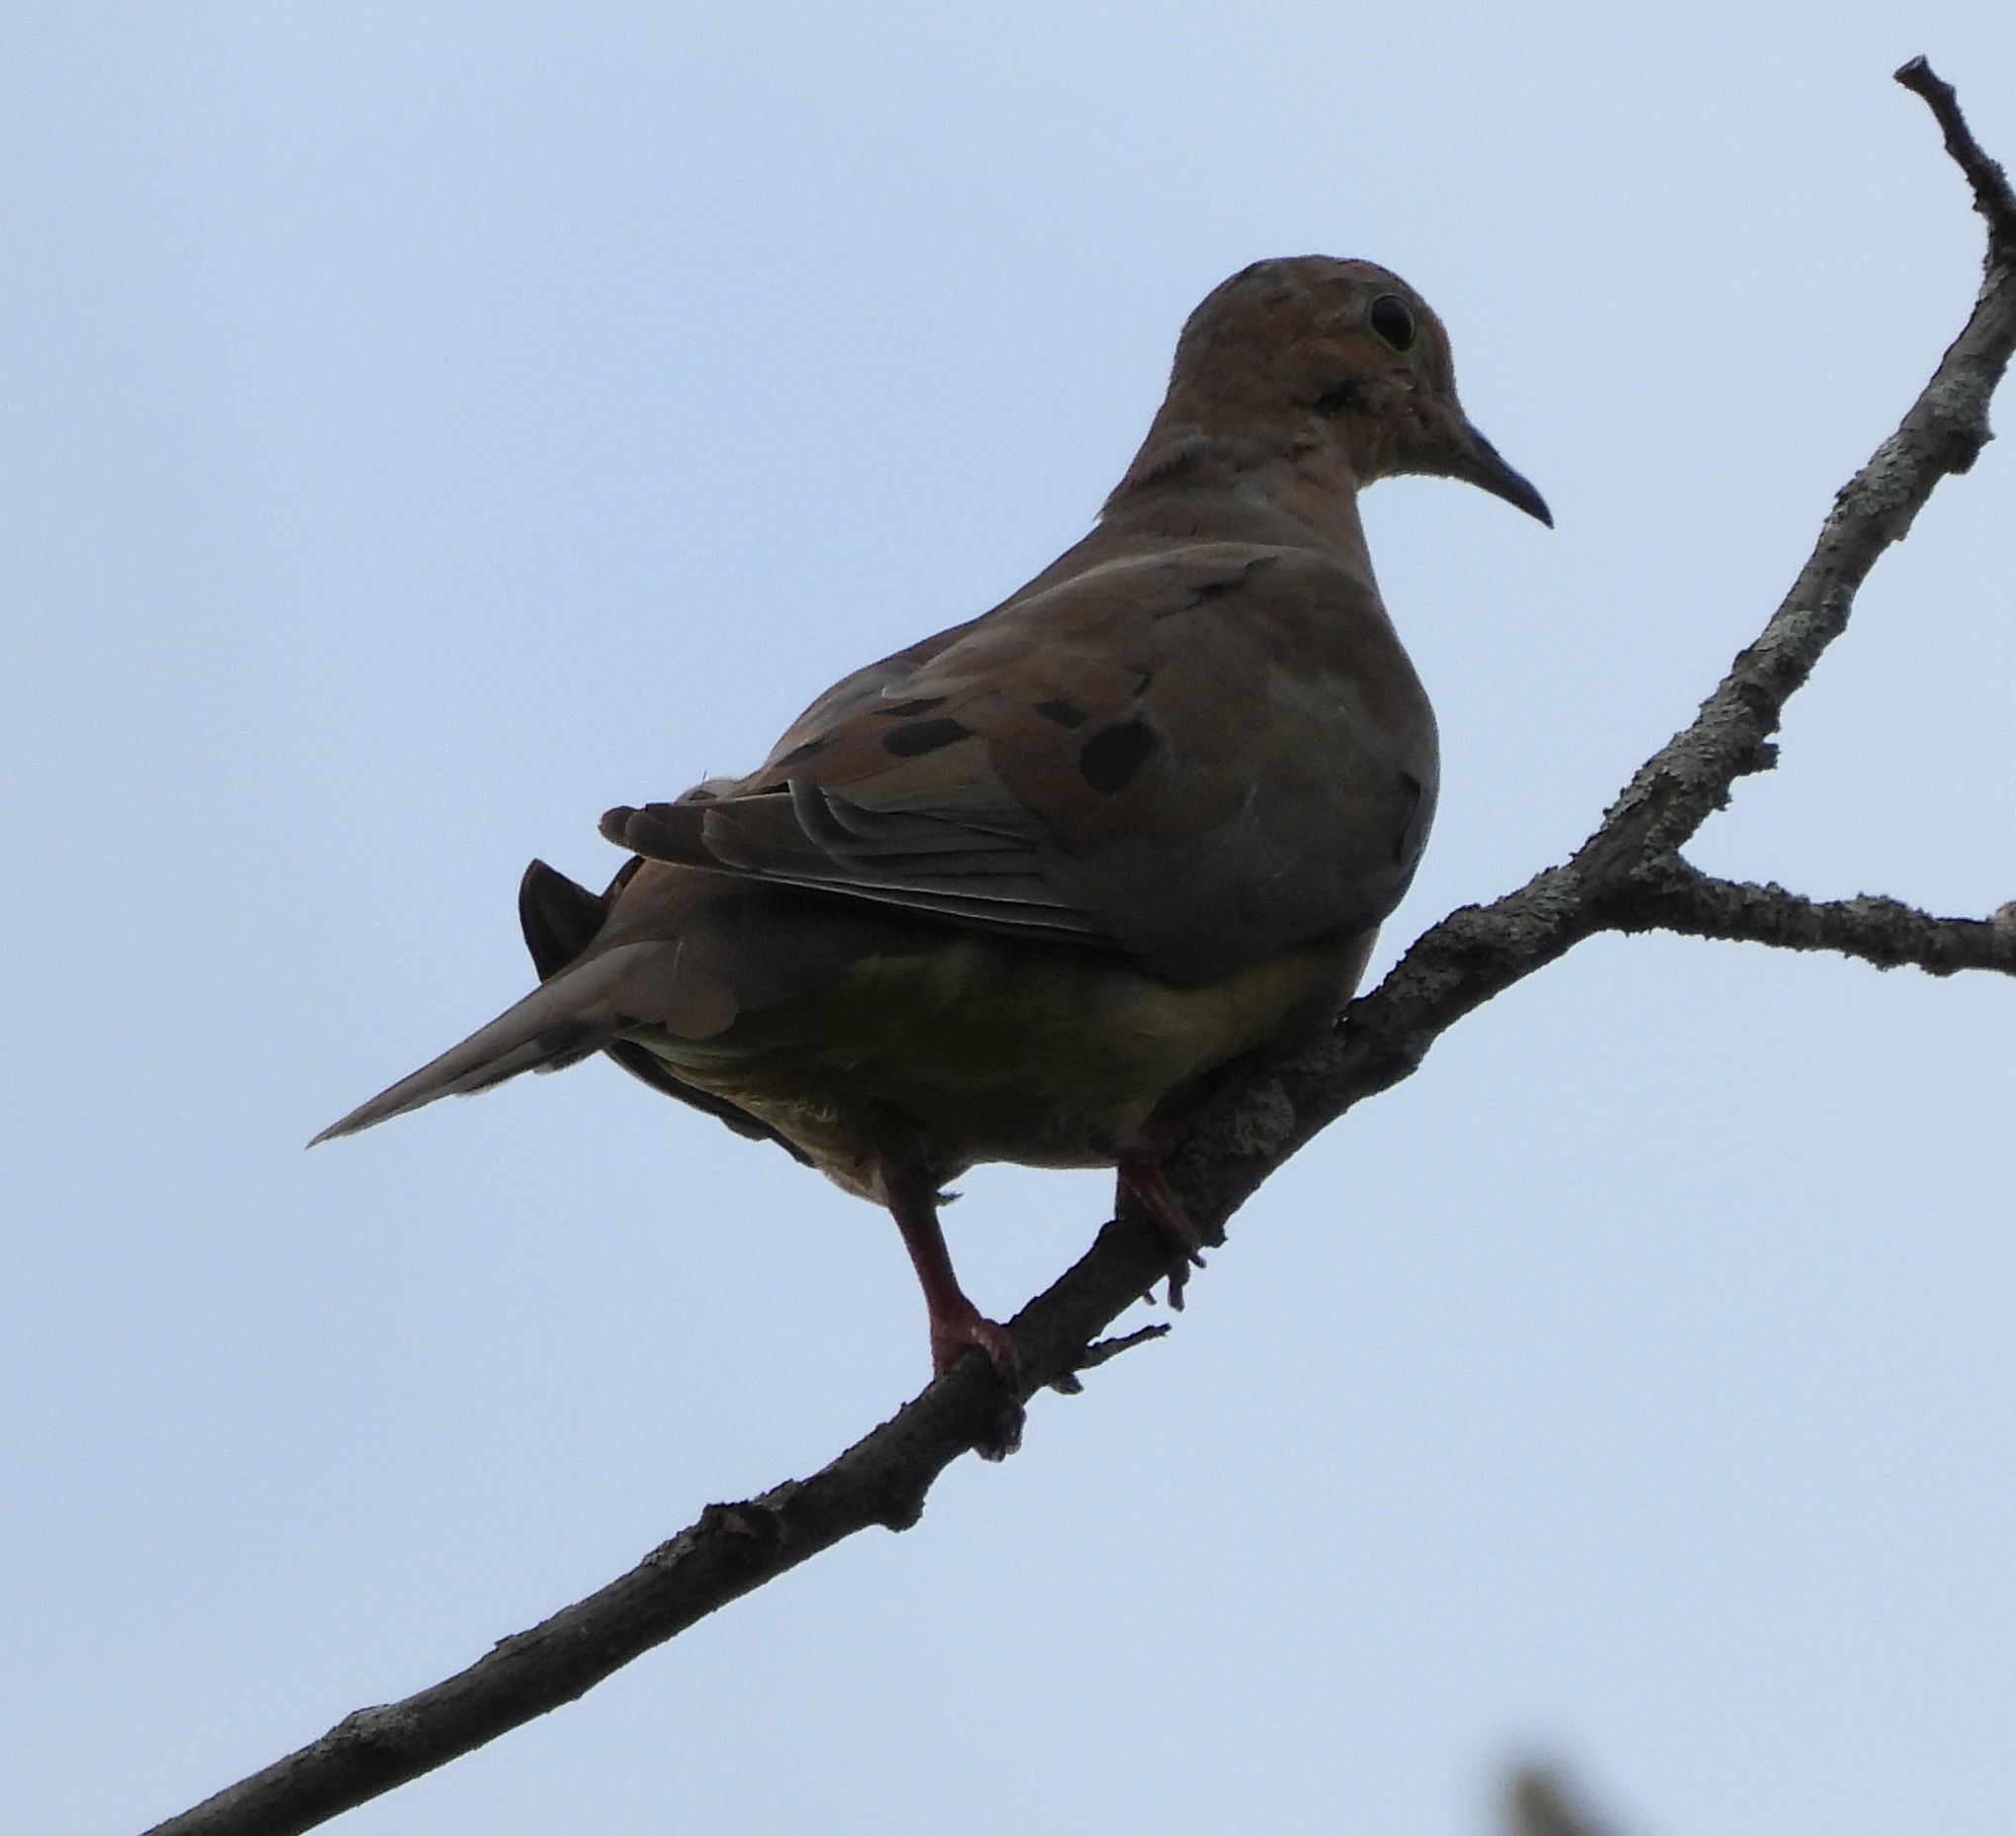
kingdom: Animalia
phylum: Chordata
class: Aves
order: Columbiformes
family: Columbidae
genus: Zenaida
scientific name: Zenaida macroura
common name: Mourning dove
